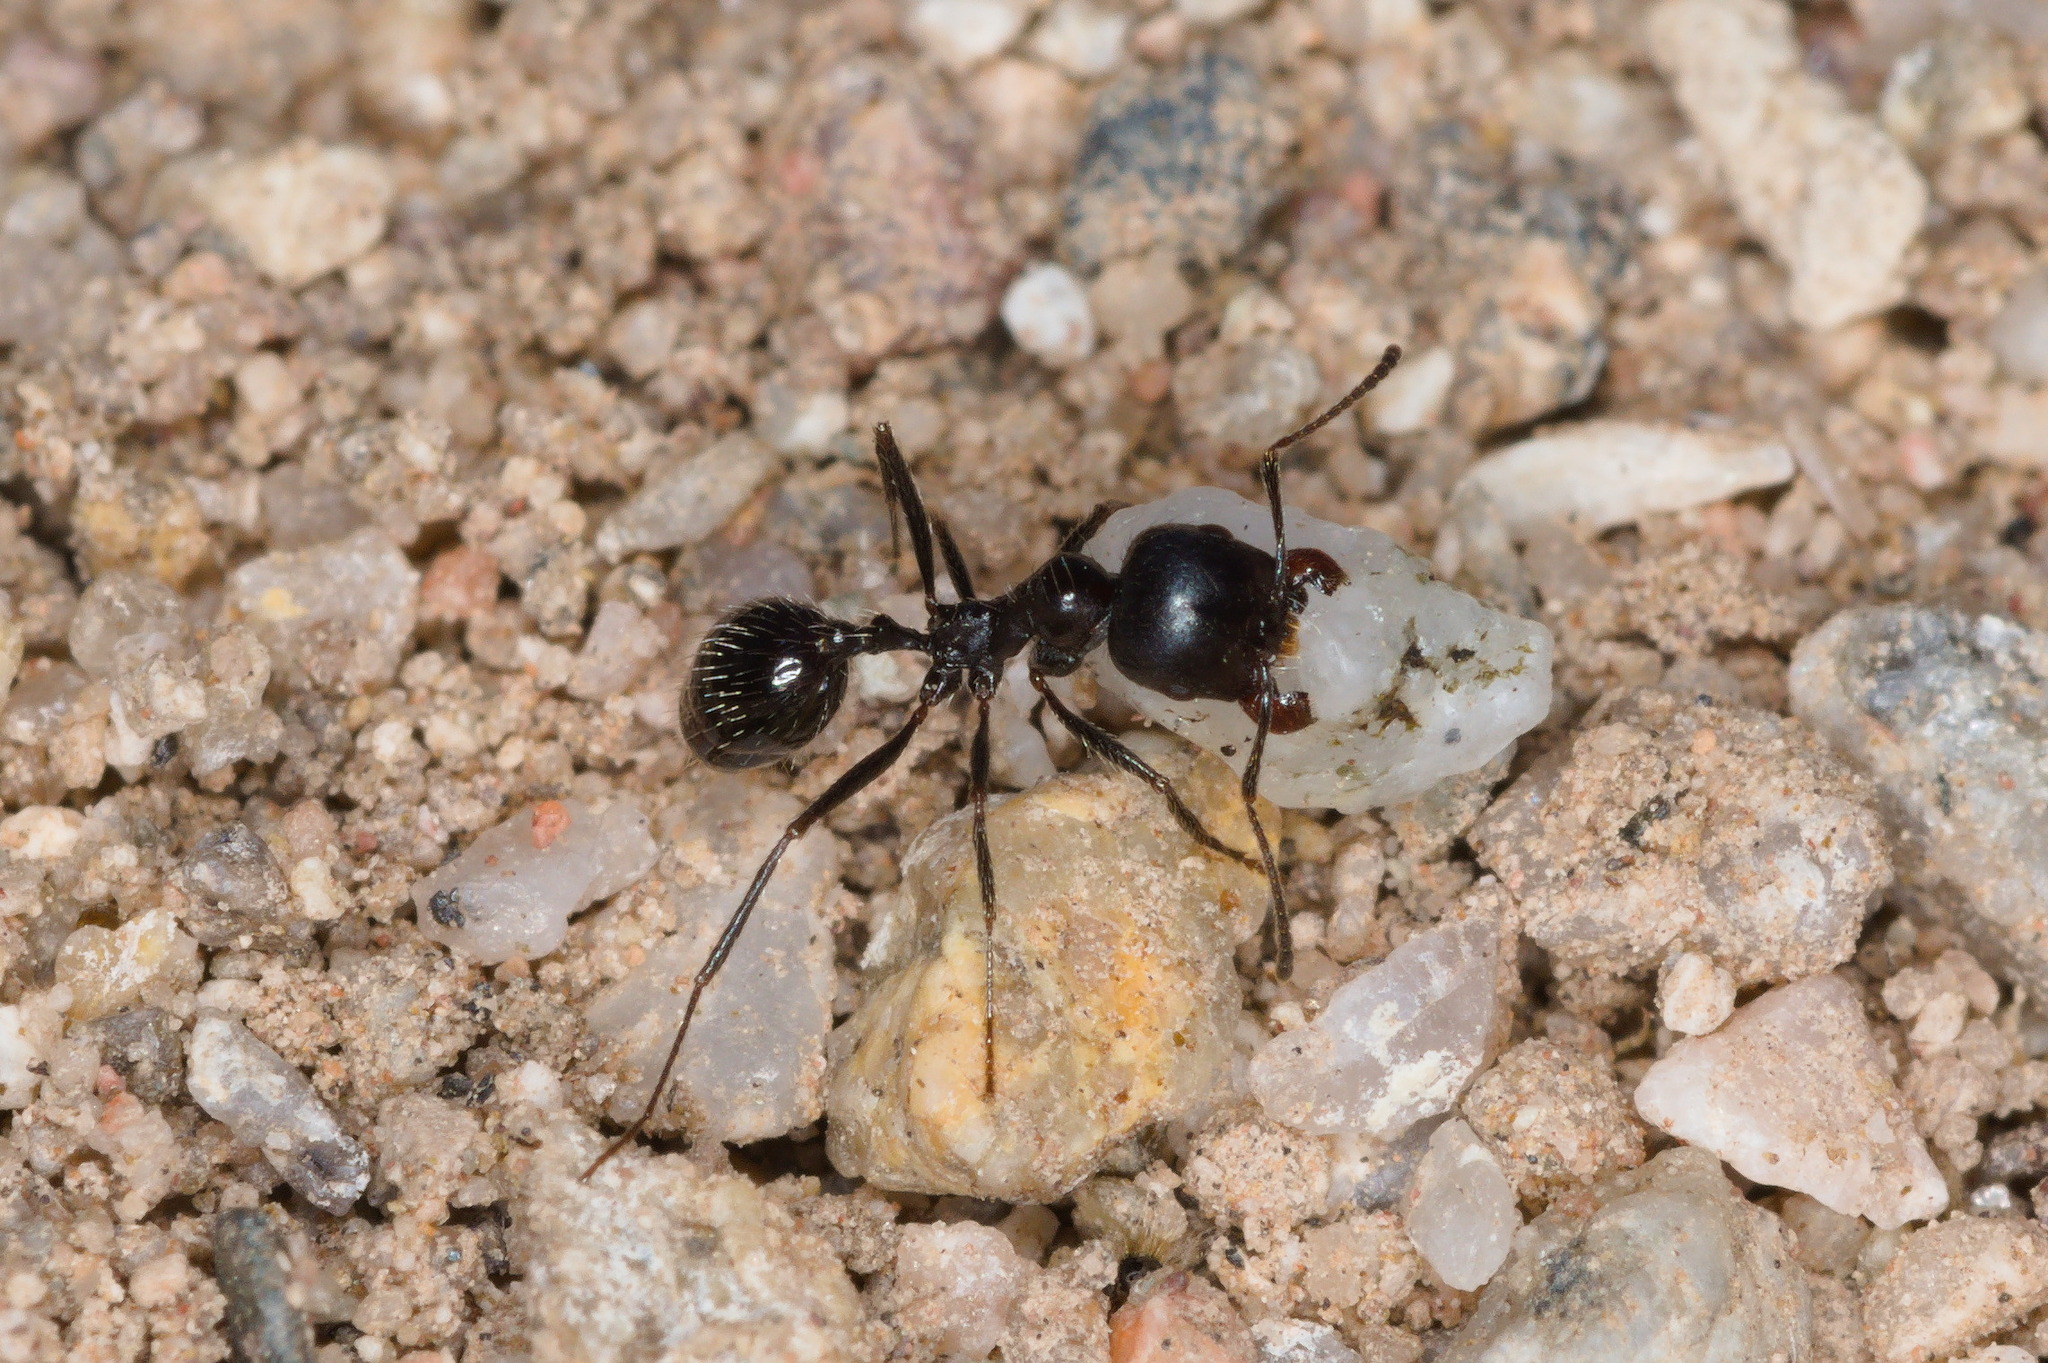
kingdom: Animalia
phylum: Arthropoda
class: Insecta
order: Hymenoptera
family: Formicidae
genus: Messor
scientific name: Messor pergandei
